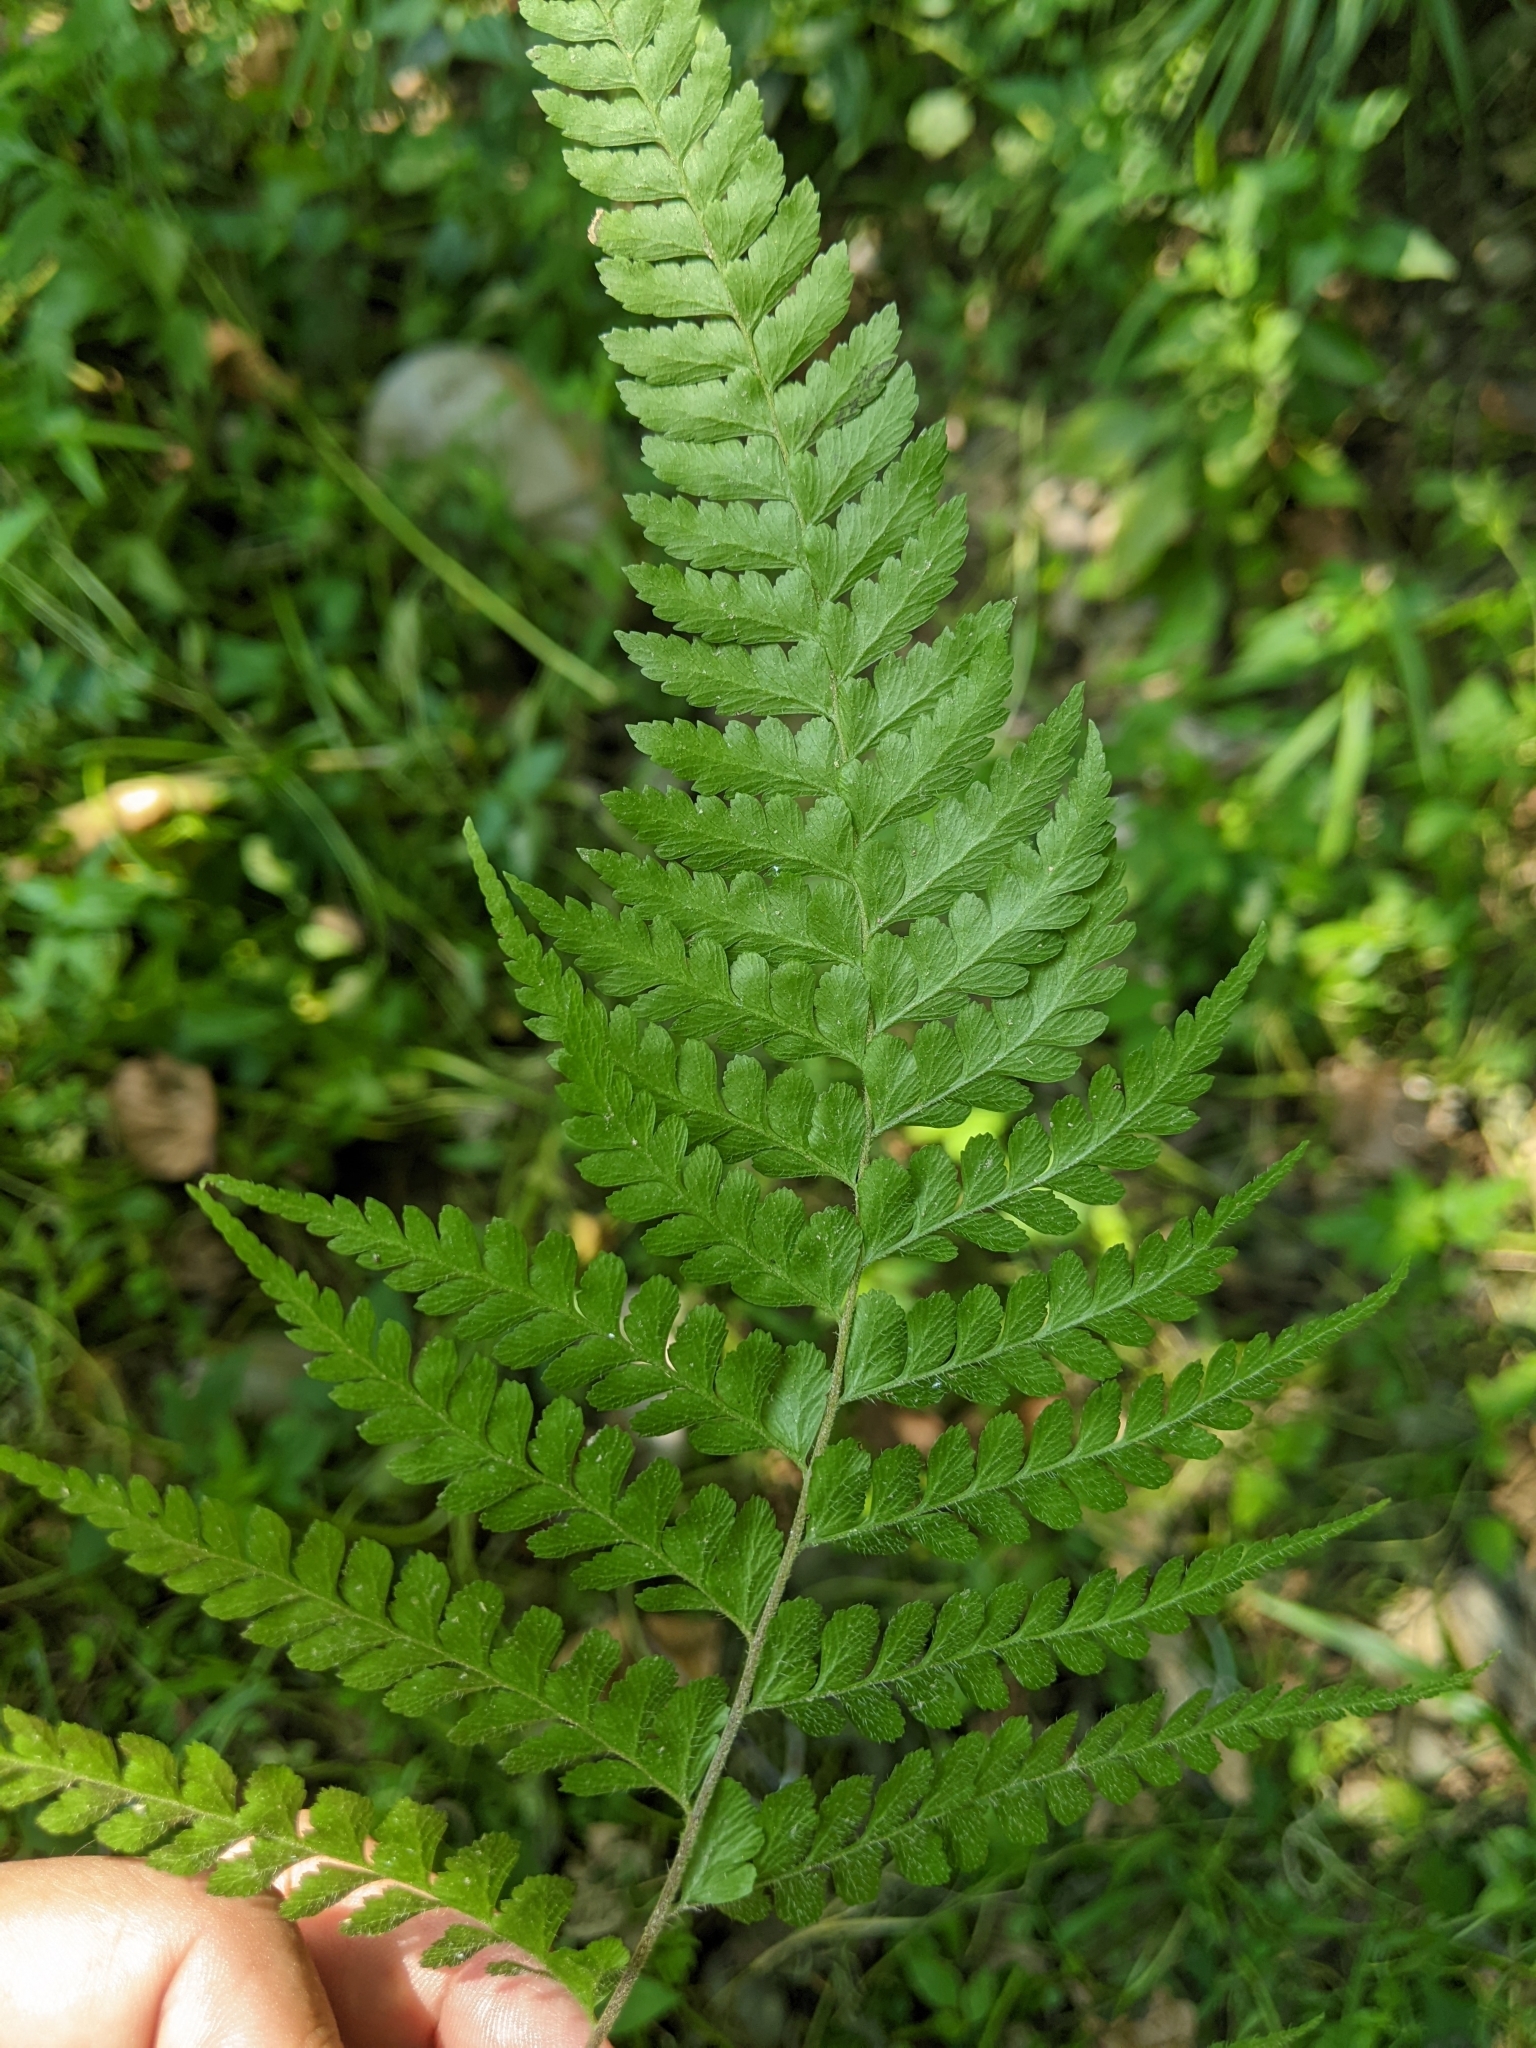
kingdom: Plantae
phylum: Tracheophyta
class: Polypodiopsida
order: Polypodiales
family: Dennstaedtiaceae
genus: Microlepia
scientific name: Microlepia strigosa
